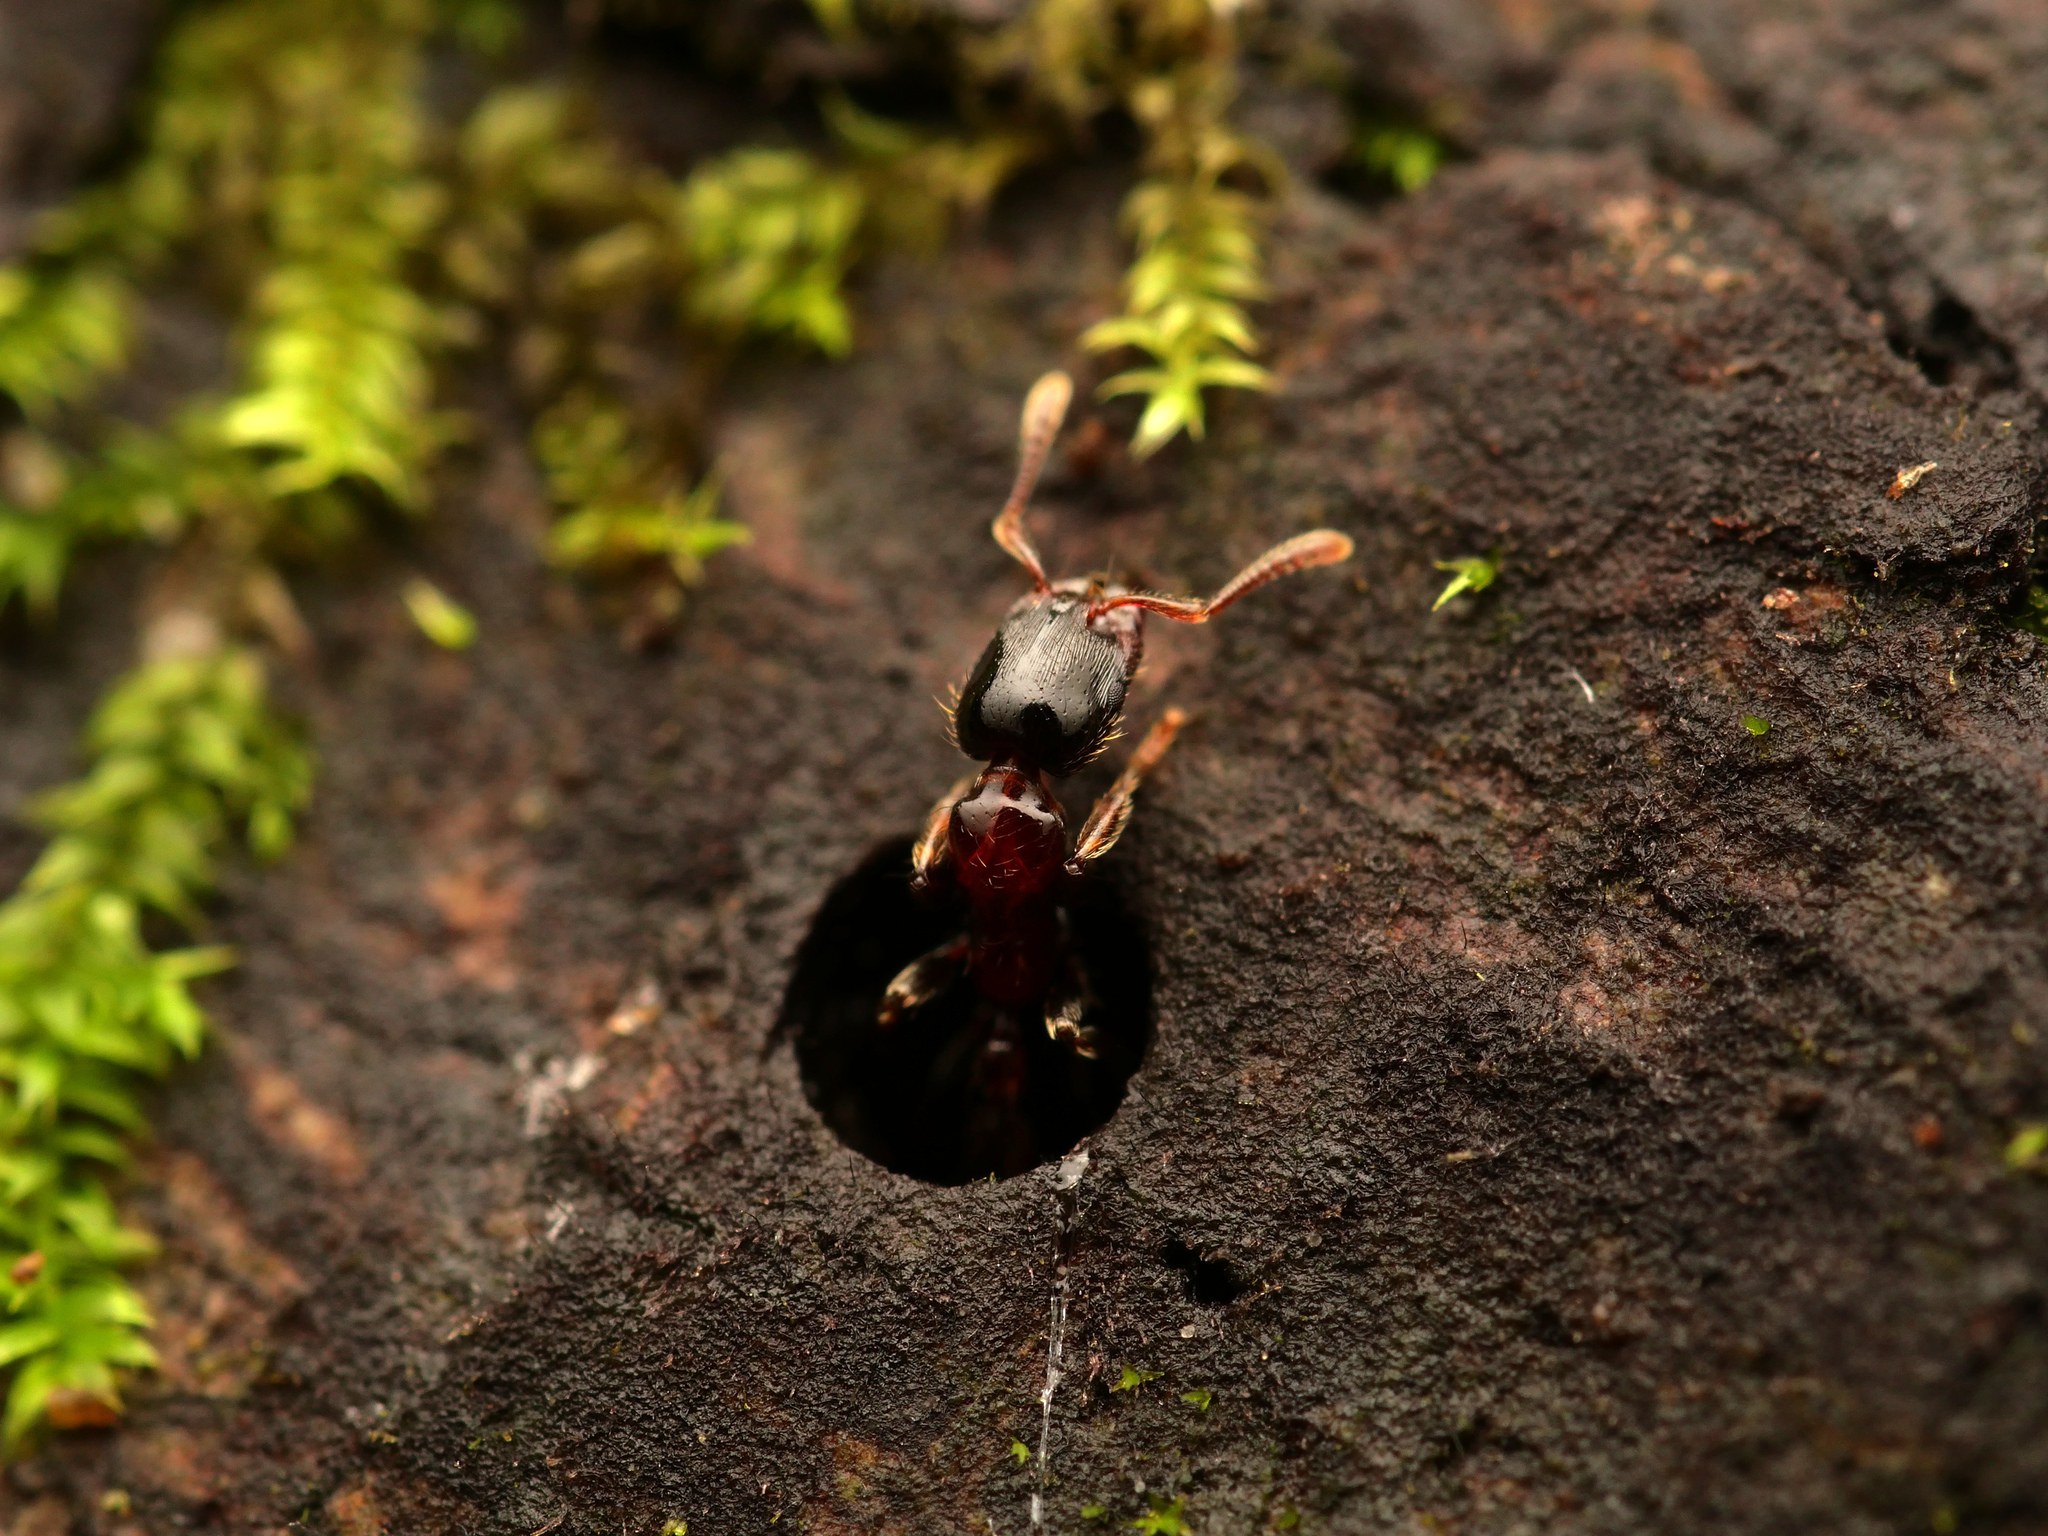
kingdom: Animalia
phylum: Arthropoda
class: Insecta
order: Hymenoptera
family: Formicidae
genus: Podomyrma
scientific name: Podomyrma minor
